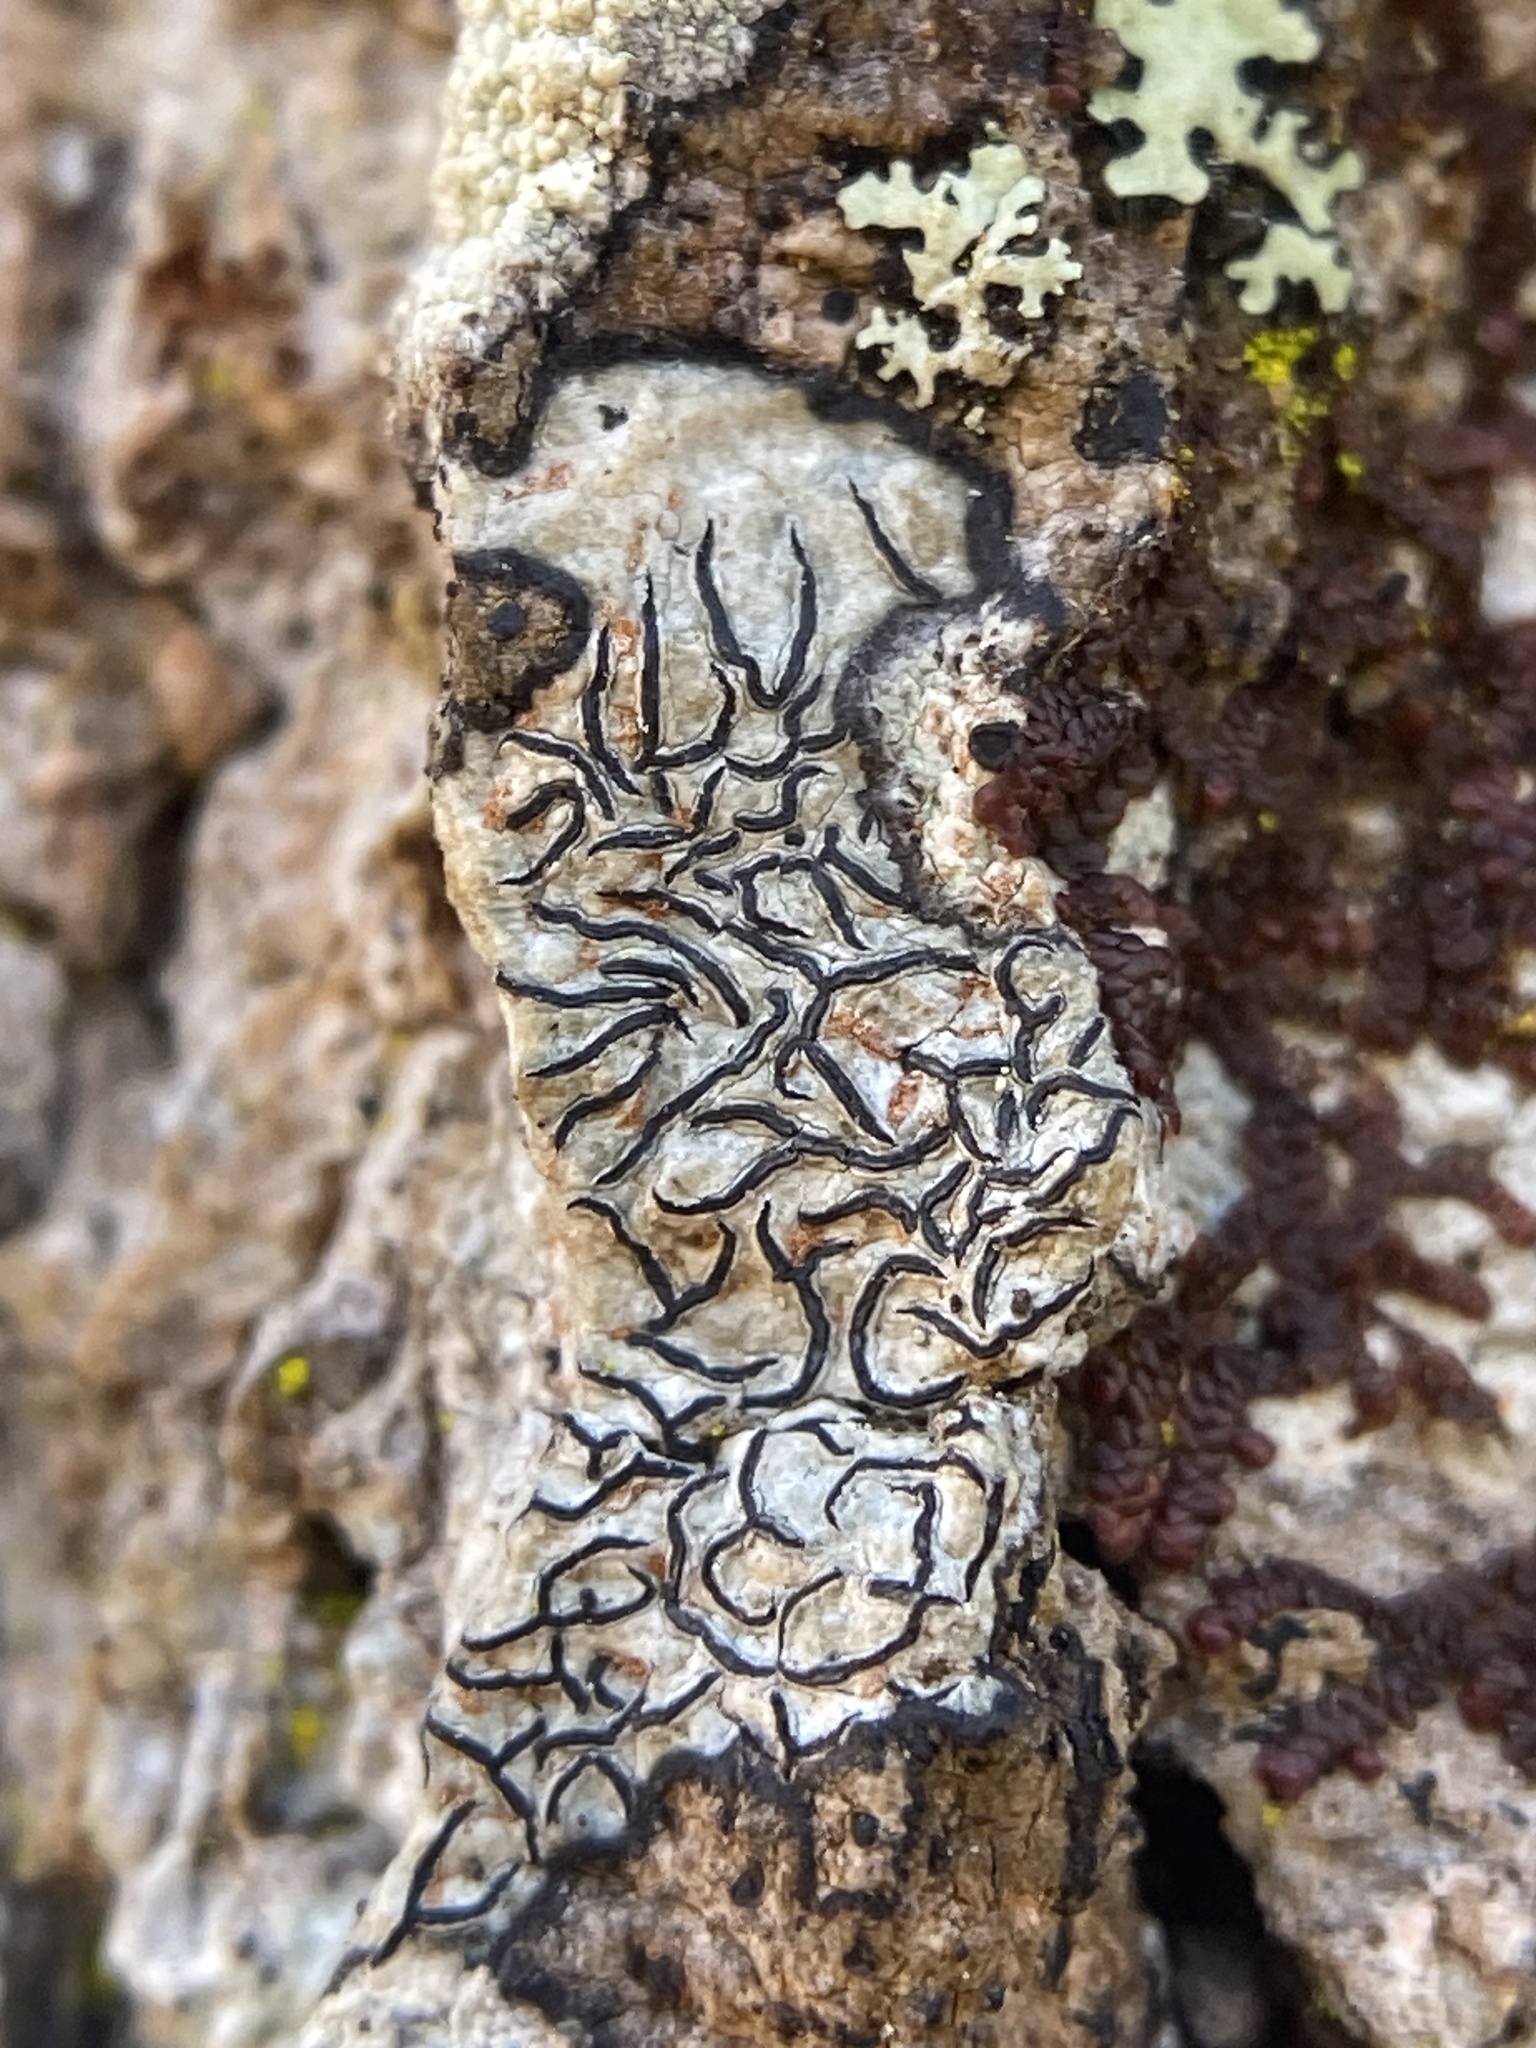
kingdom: Fungi
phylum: Ascomycota
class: Lecanoromycetes
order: Ostropales
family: Graphidaceae
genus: Graphis
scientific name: Graphis scripta
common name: Script lichen
